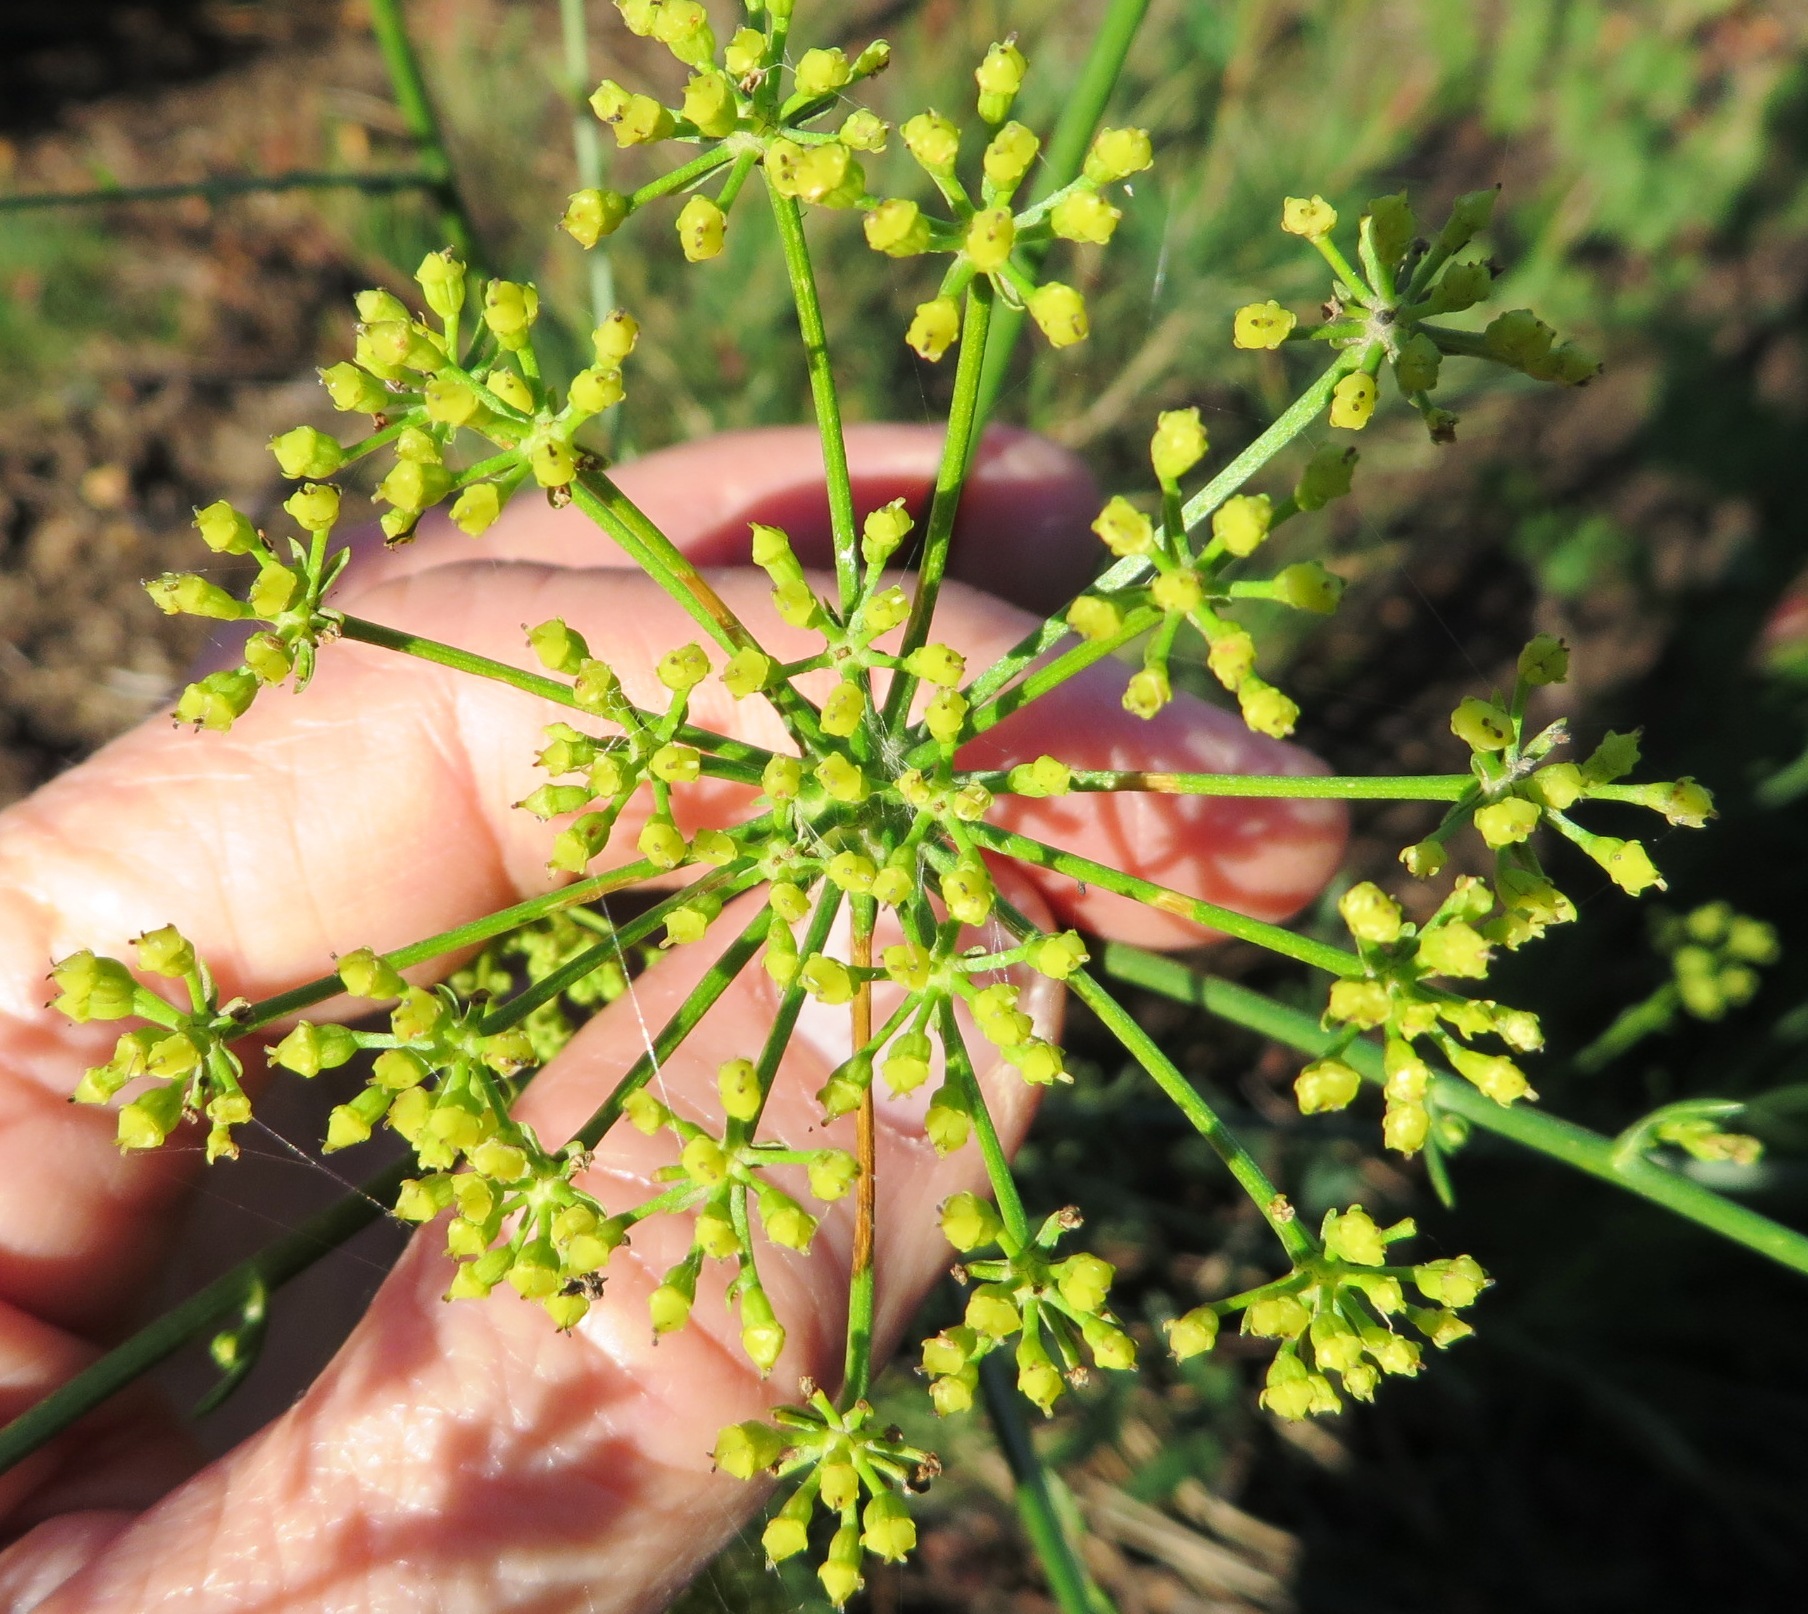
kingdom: Plantae
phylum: Tracheophyta
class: Magnoliopsida
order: Apiales
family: Apiaceae
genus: Glia
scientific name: Glia prolifera
